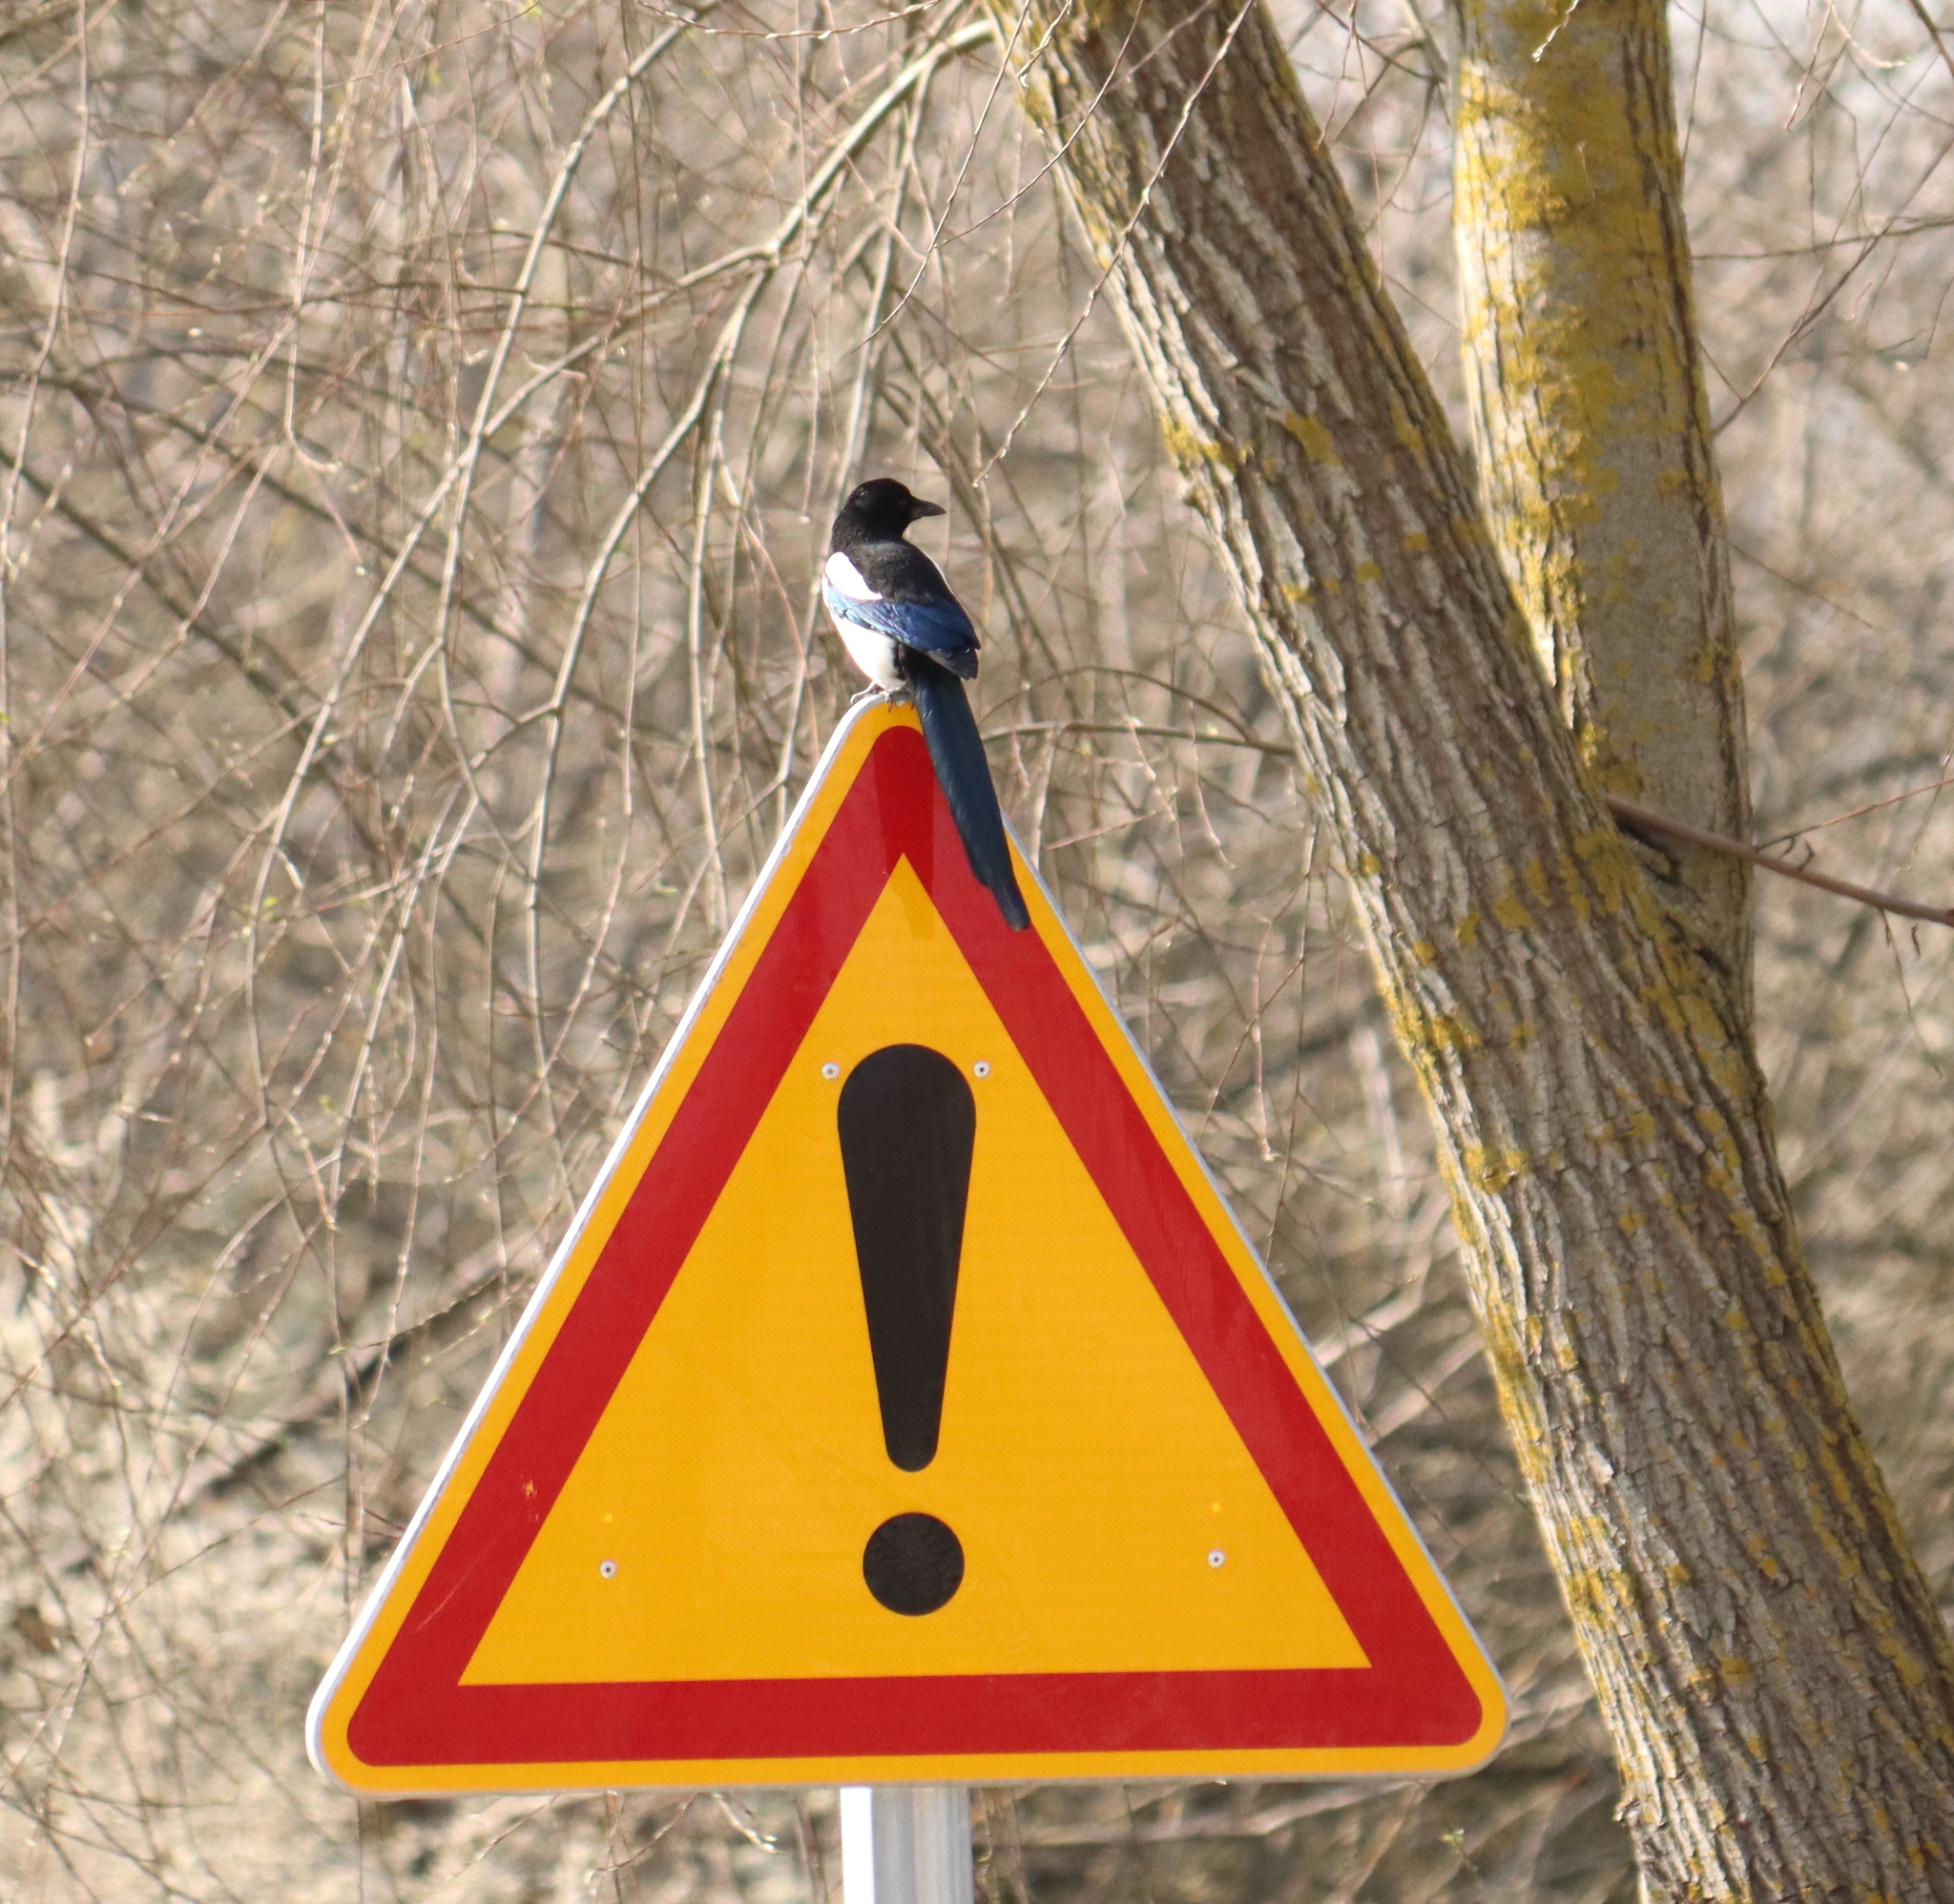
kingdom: Animalia
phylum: Chordata
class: Aves
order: Passeriformes
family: Corvidae
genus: Pica
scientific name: Pica pica
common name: Eurasian magpie
